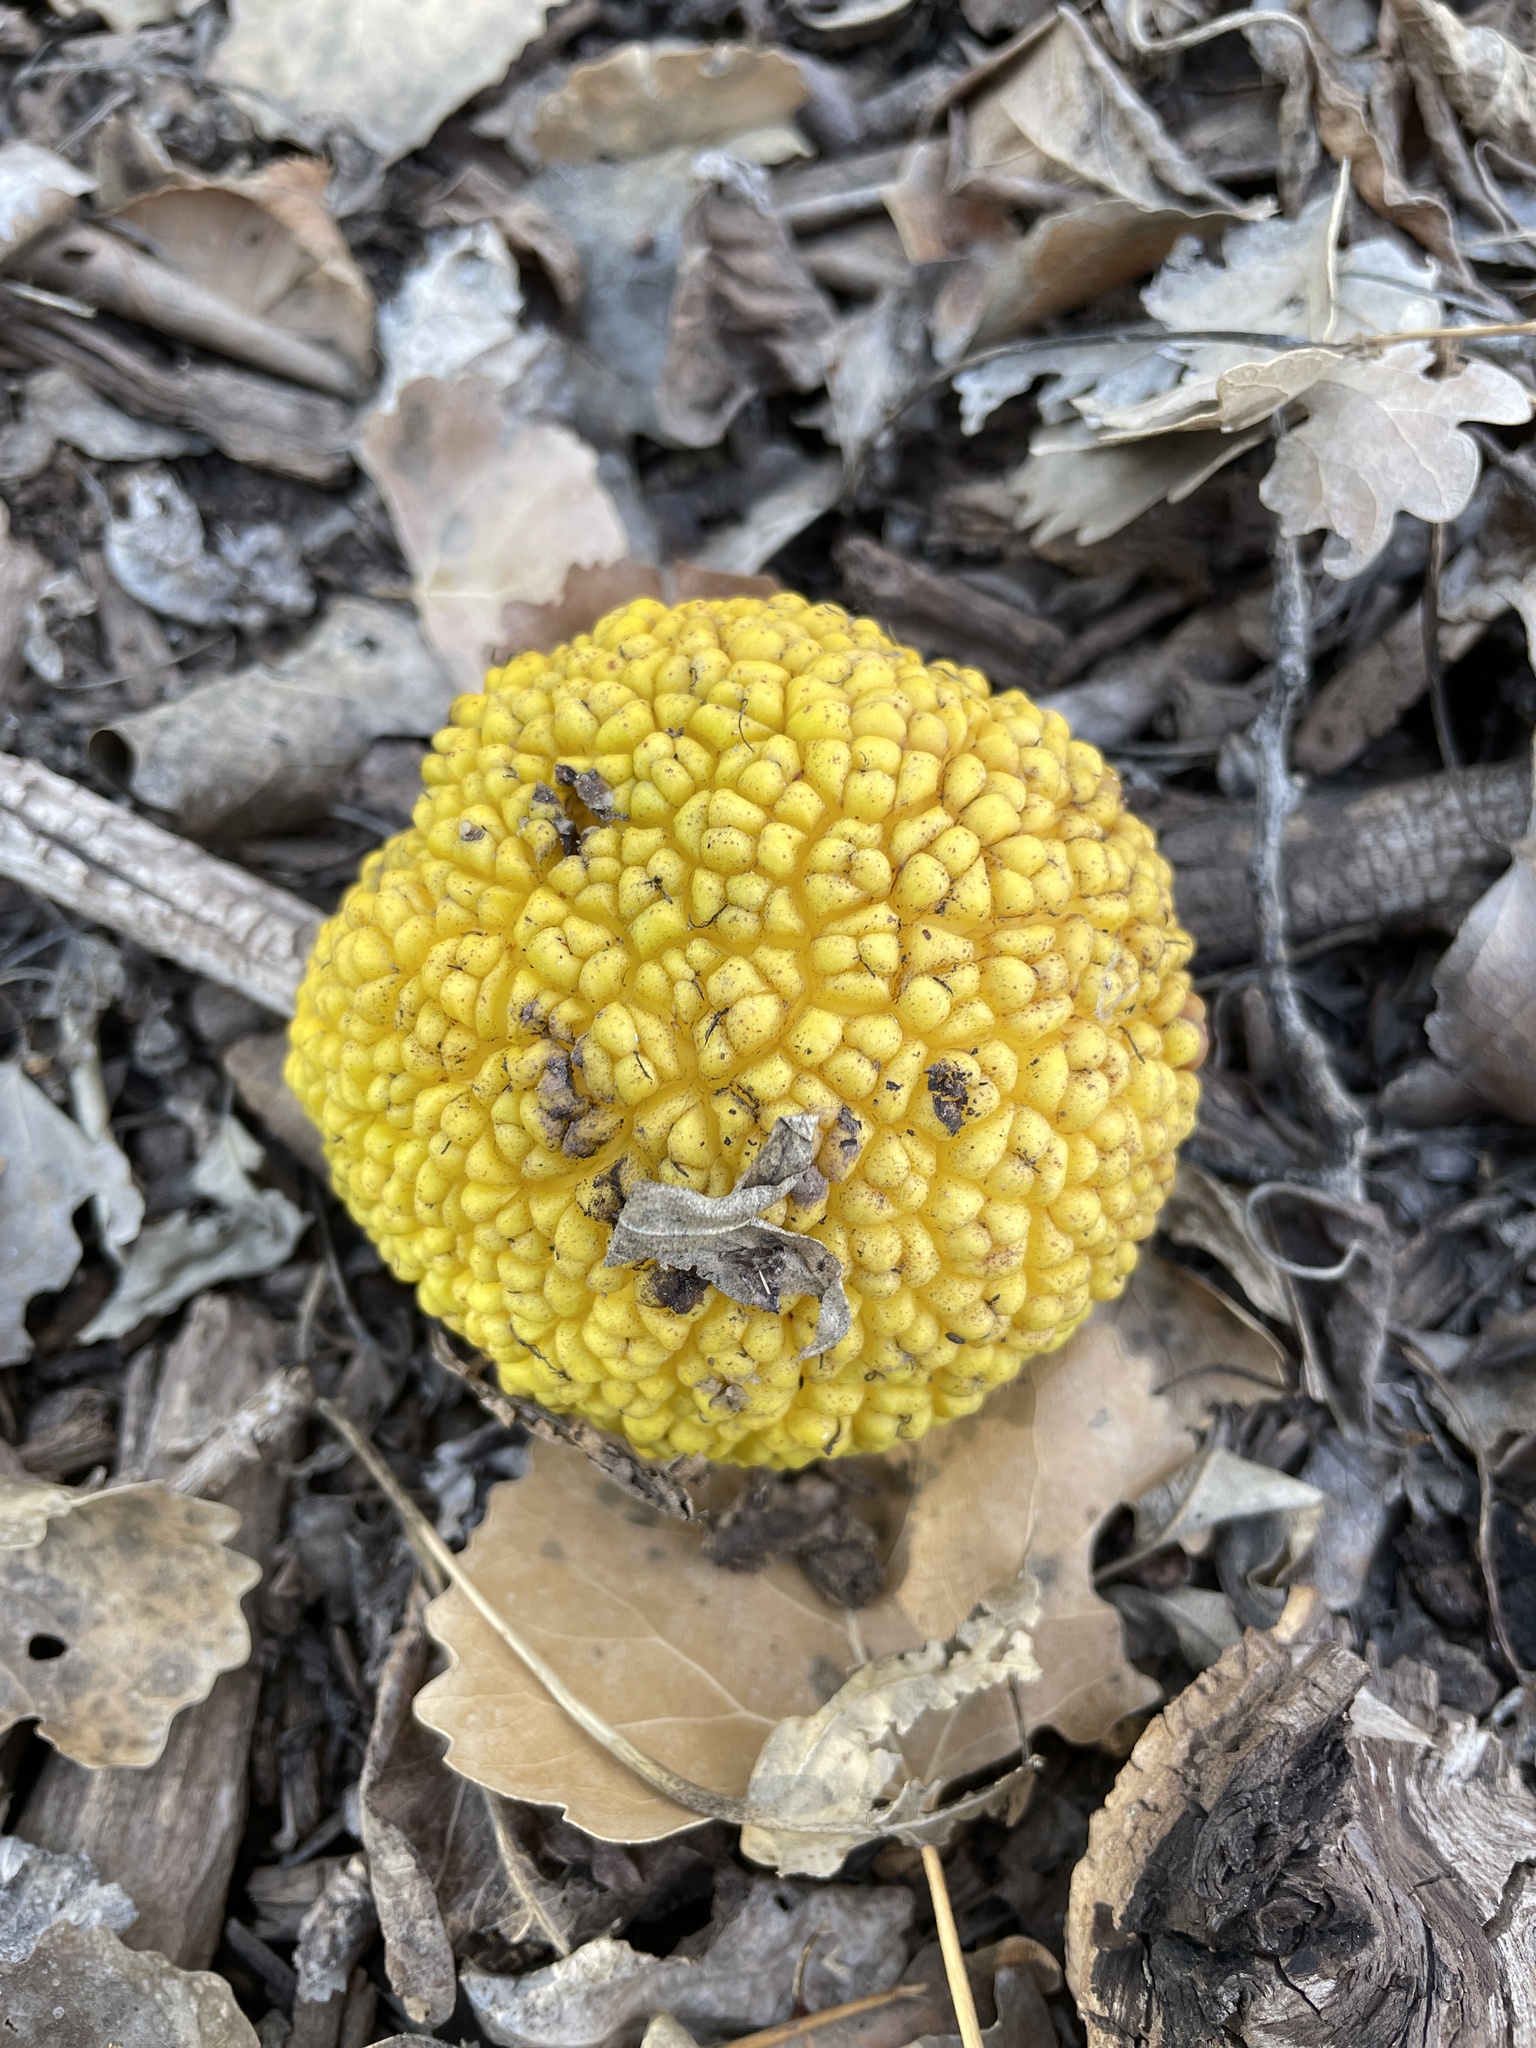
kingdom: Plantae
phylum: Tracheophyta
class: Magnoliopsida
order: Rosales
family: Moraceae
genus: Maclura
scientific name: Maclura pomifera
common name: Osage-orange
